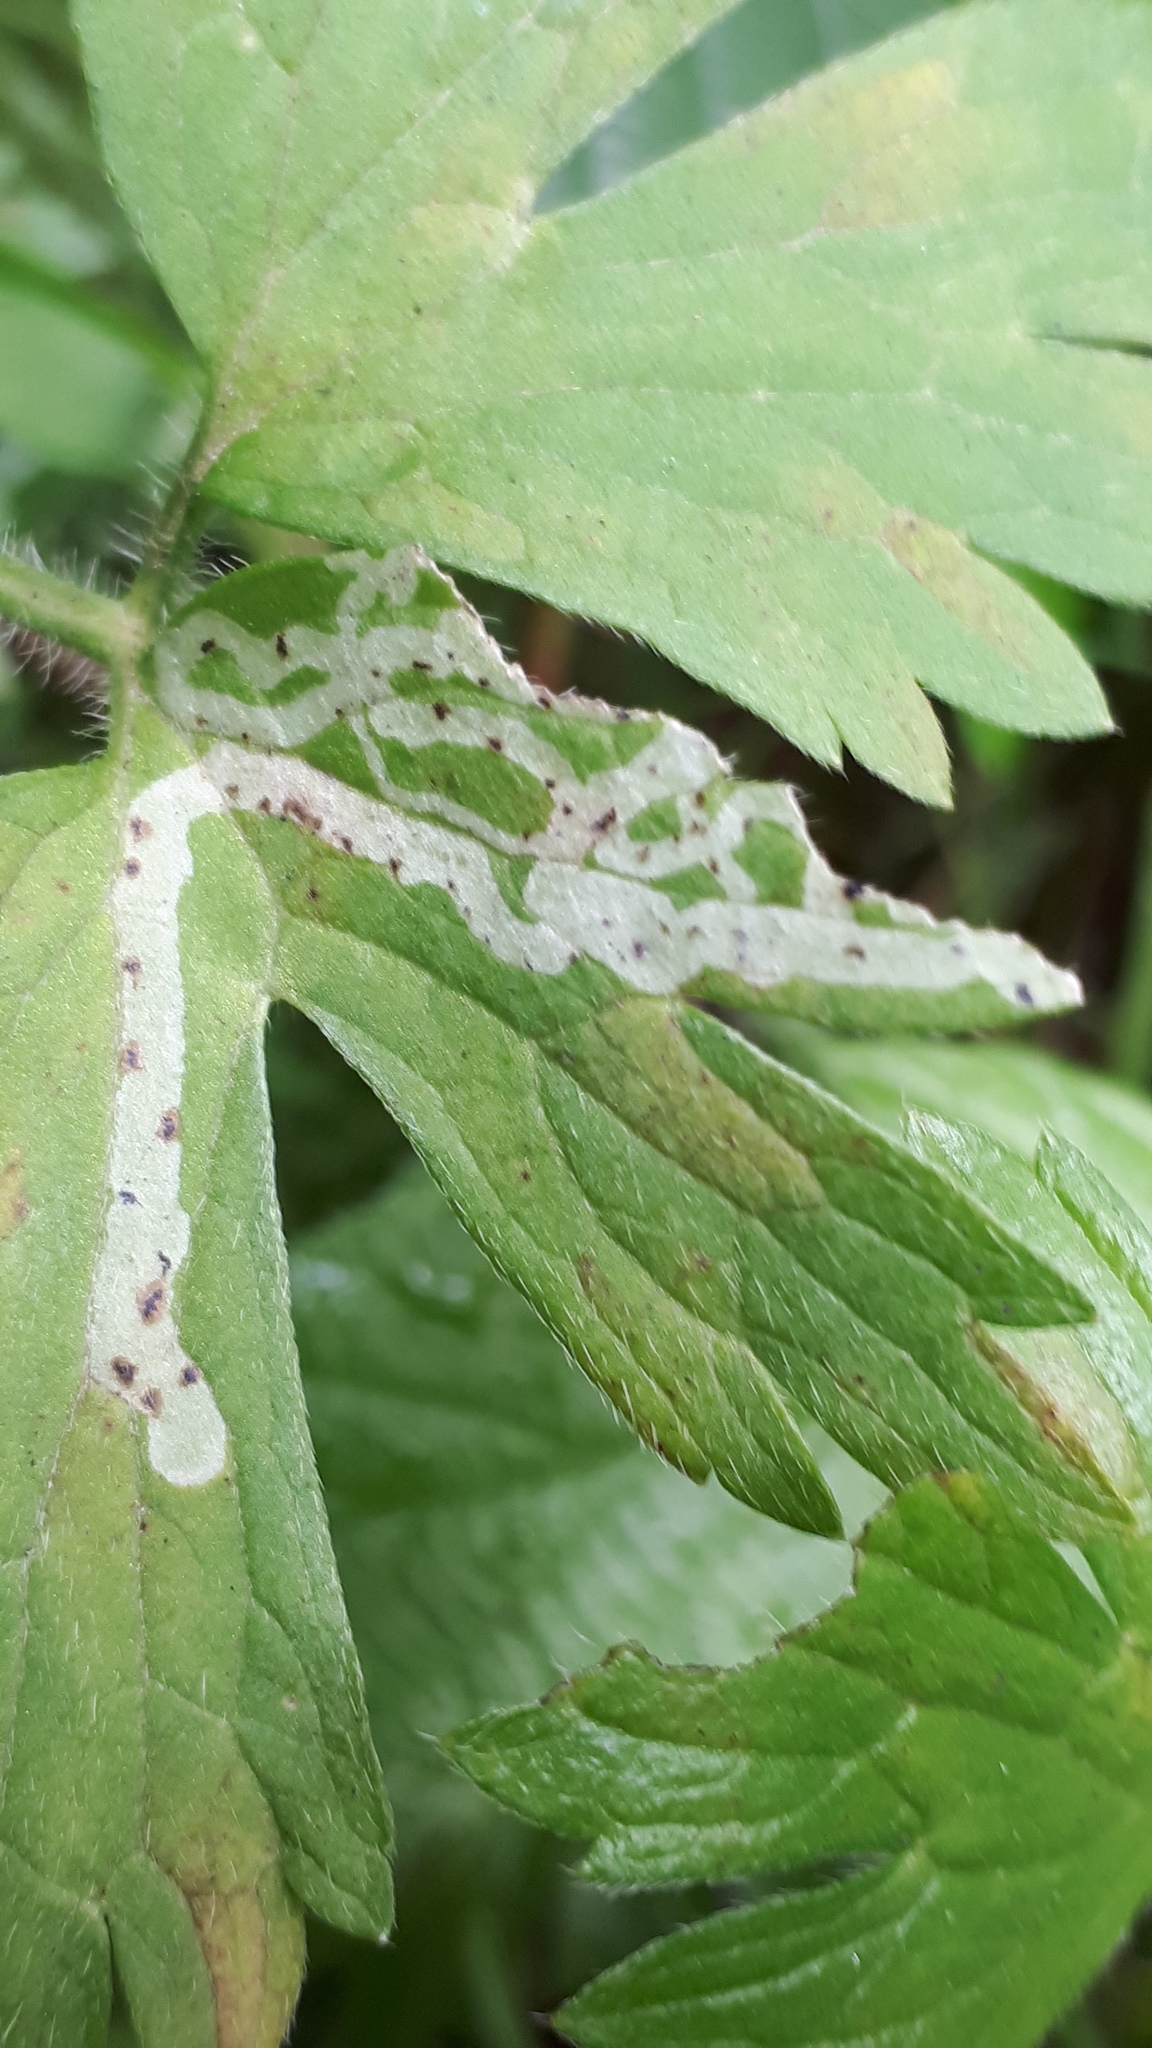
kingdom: Animalia
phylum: Arthropoda
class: Insecta
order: Diptera
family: Agromyzidae
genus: Phytomyza
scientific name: Phytomyza ranunculi
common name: Leaf-miner fly
